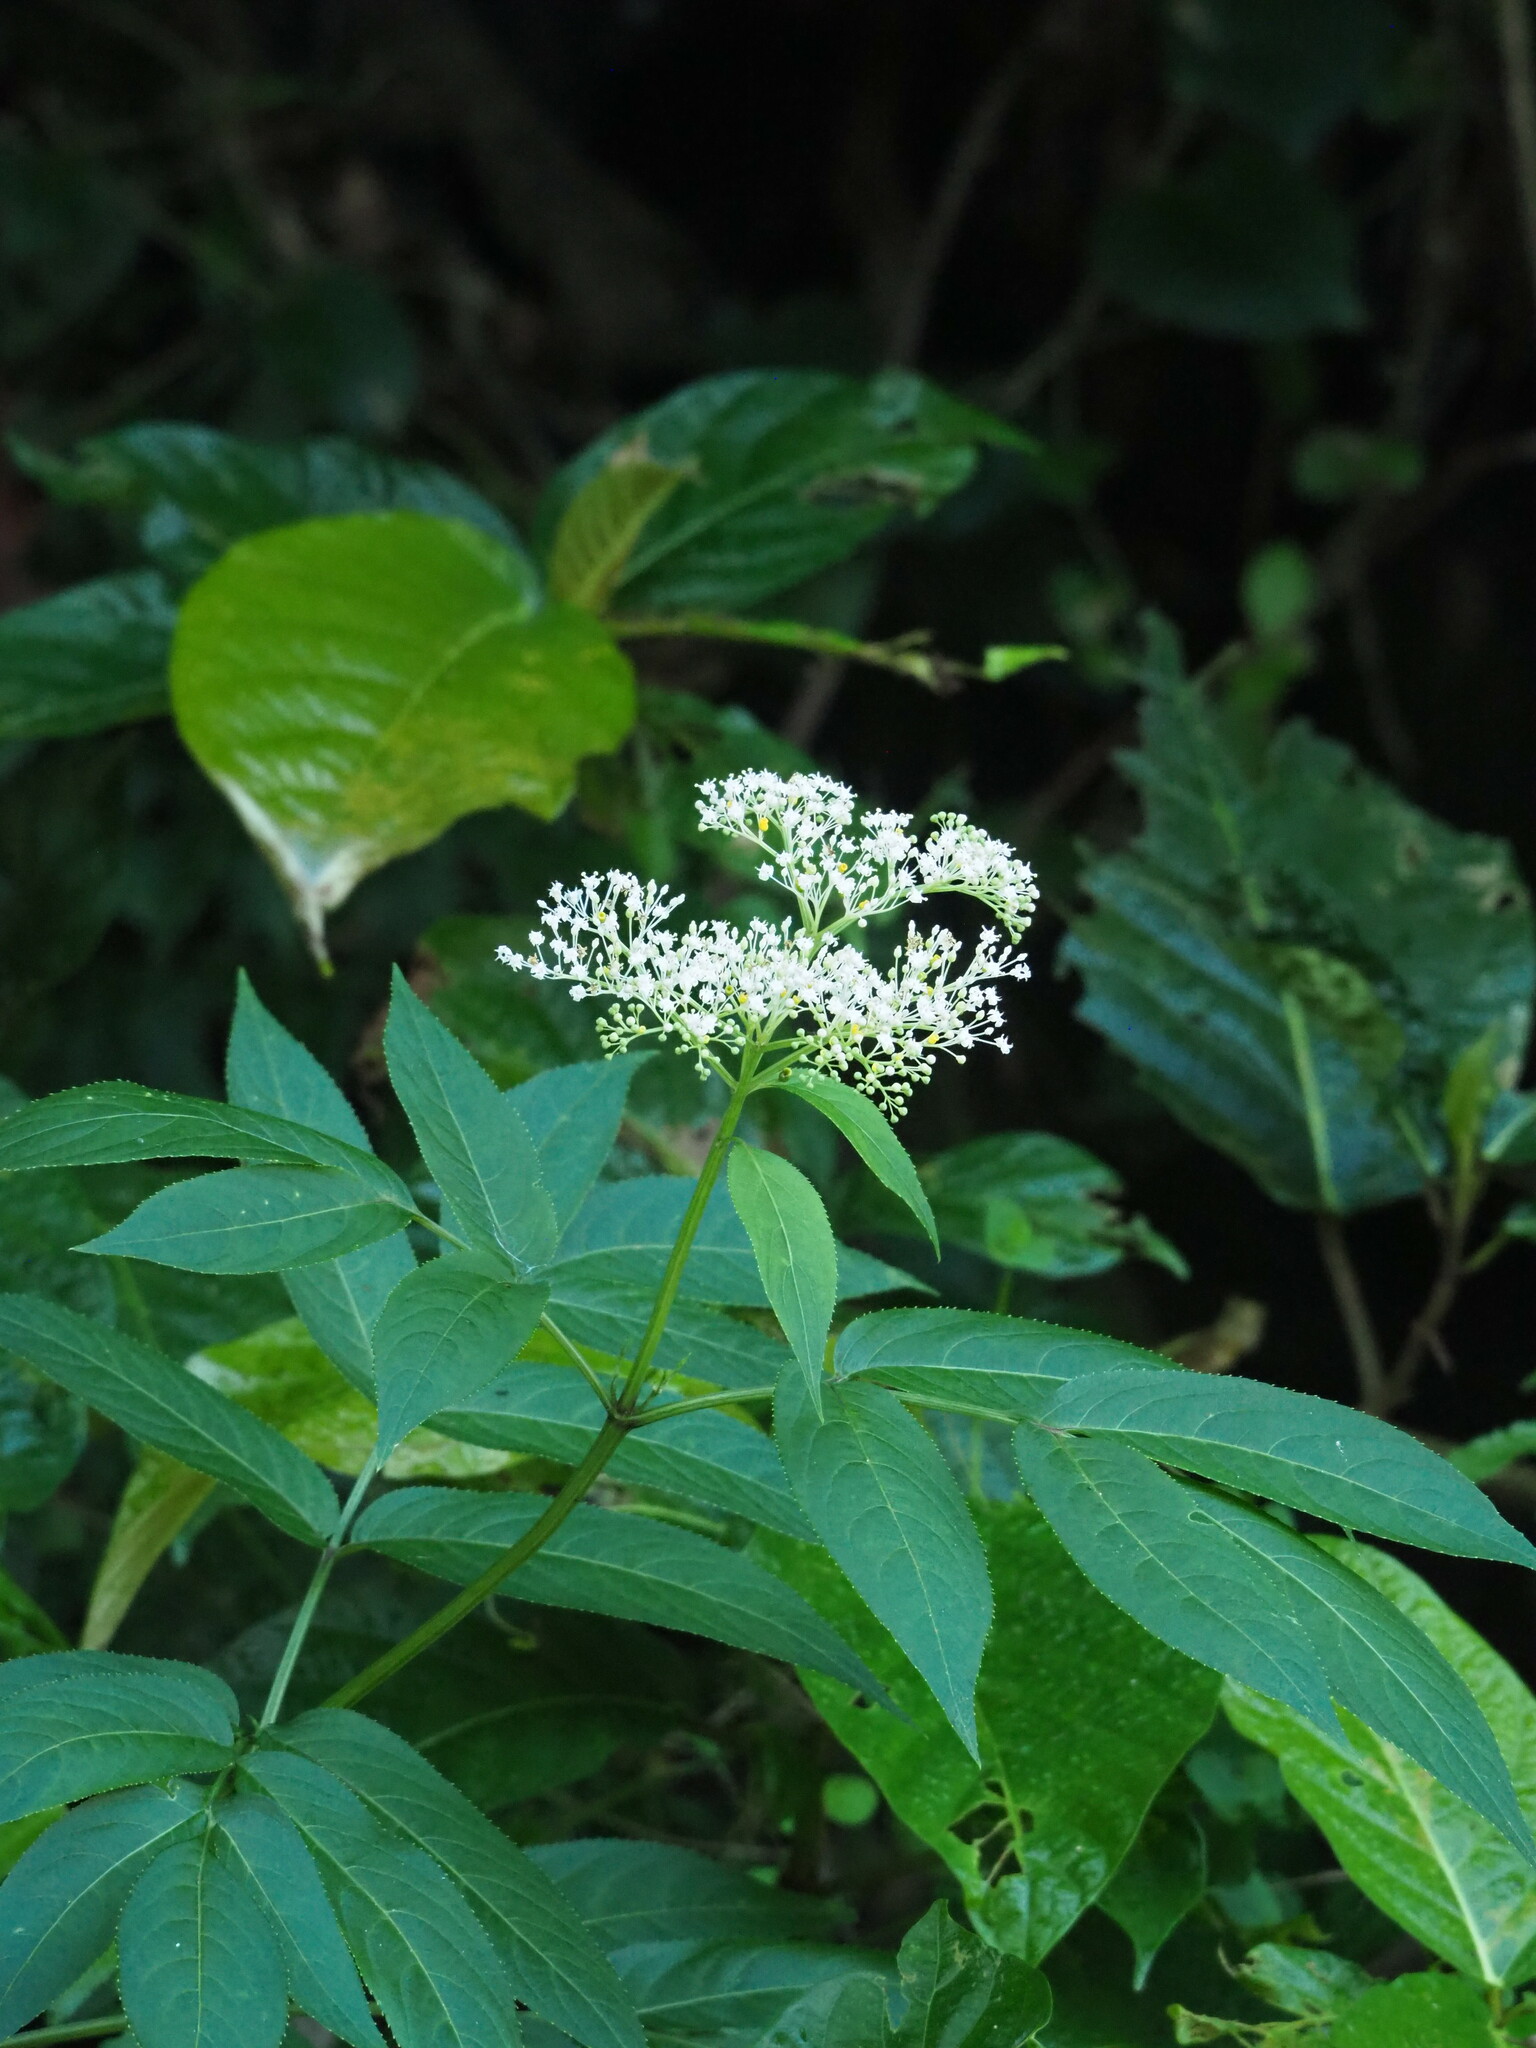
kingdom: Plantae
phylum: Tracheophyta
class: Magnoliopsida
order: Dipsacales
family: Viburnaceae
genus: Sambucus
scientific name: Sambucus javanica
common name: Chinese elder
